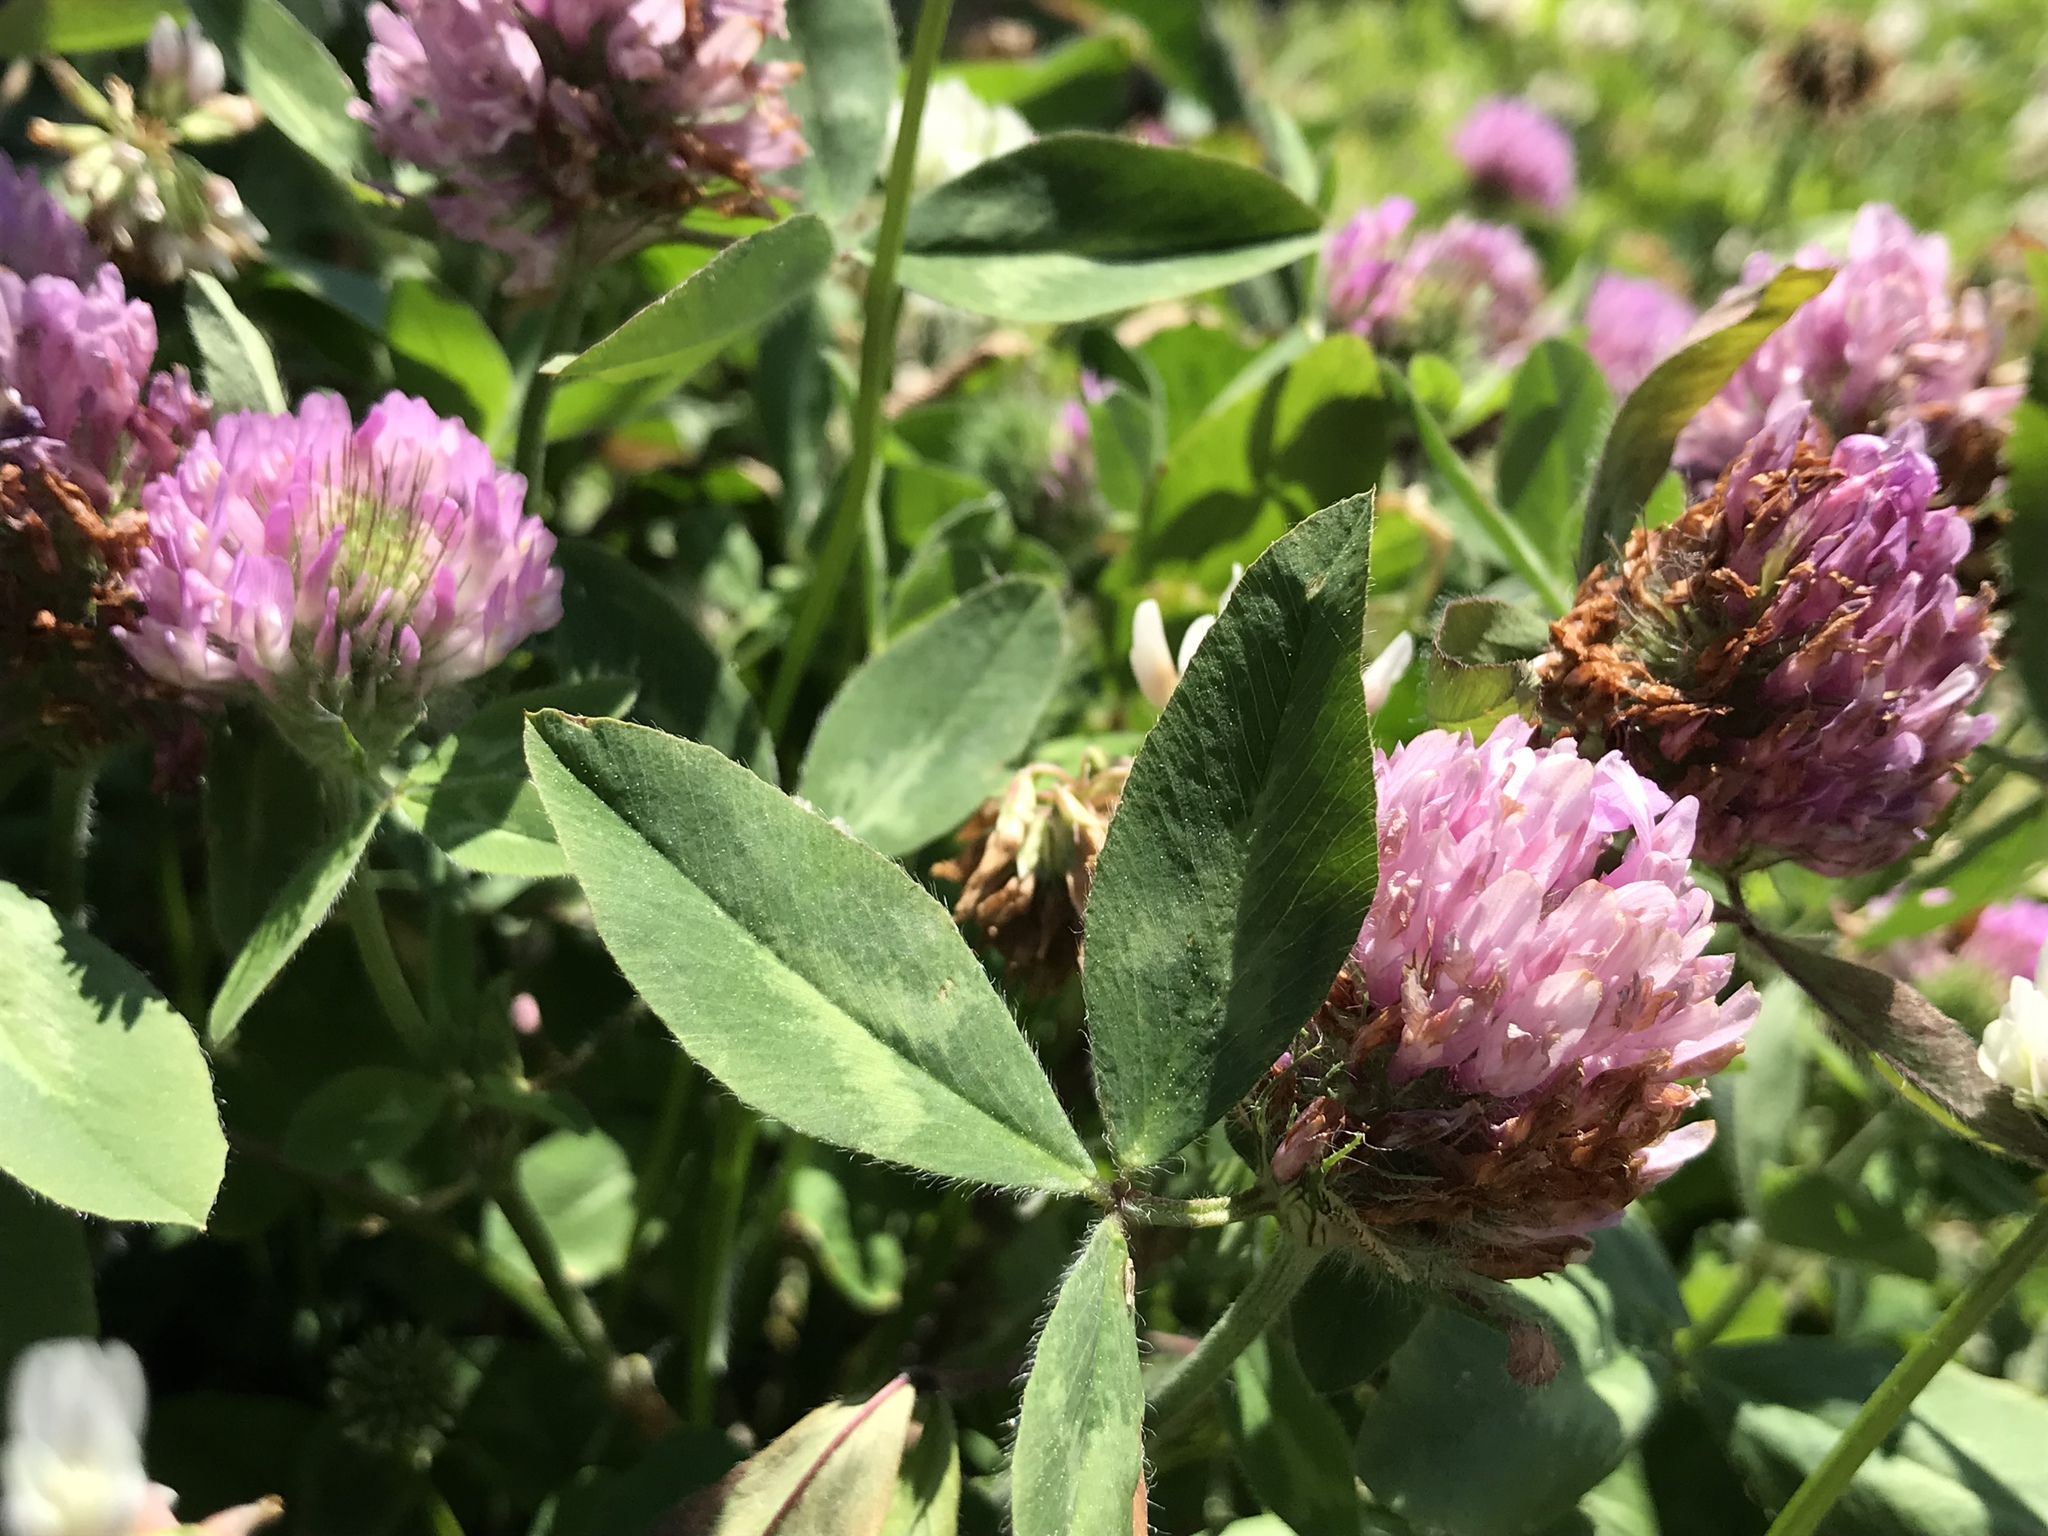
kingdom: Plantae
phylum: Tracheophyta
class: Magnoliopsida
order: Fabales
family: Fabaceae
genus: Trifolium
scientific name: Trifolium pratense
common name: Red clover
